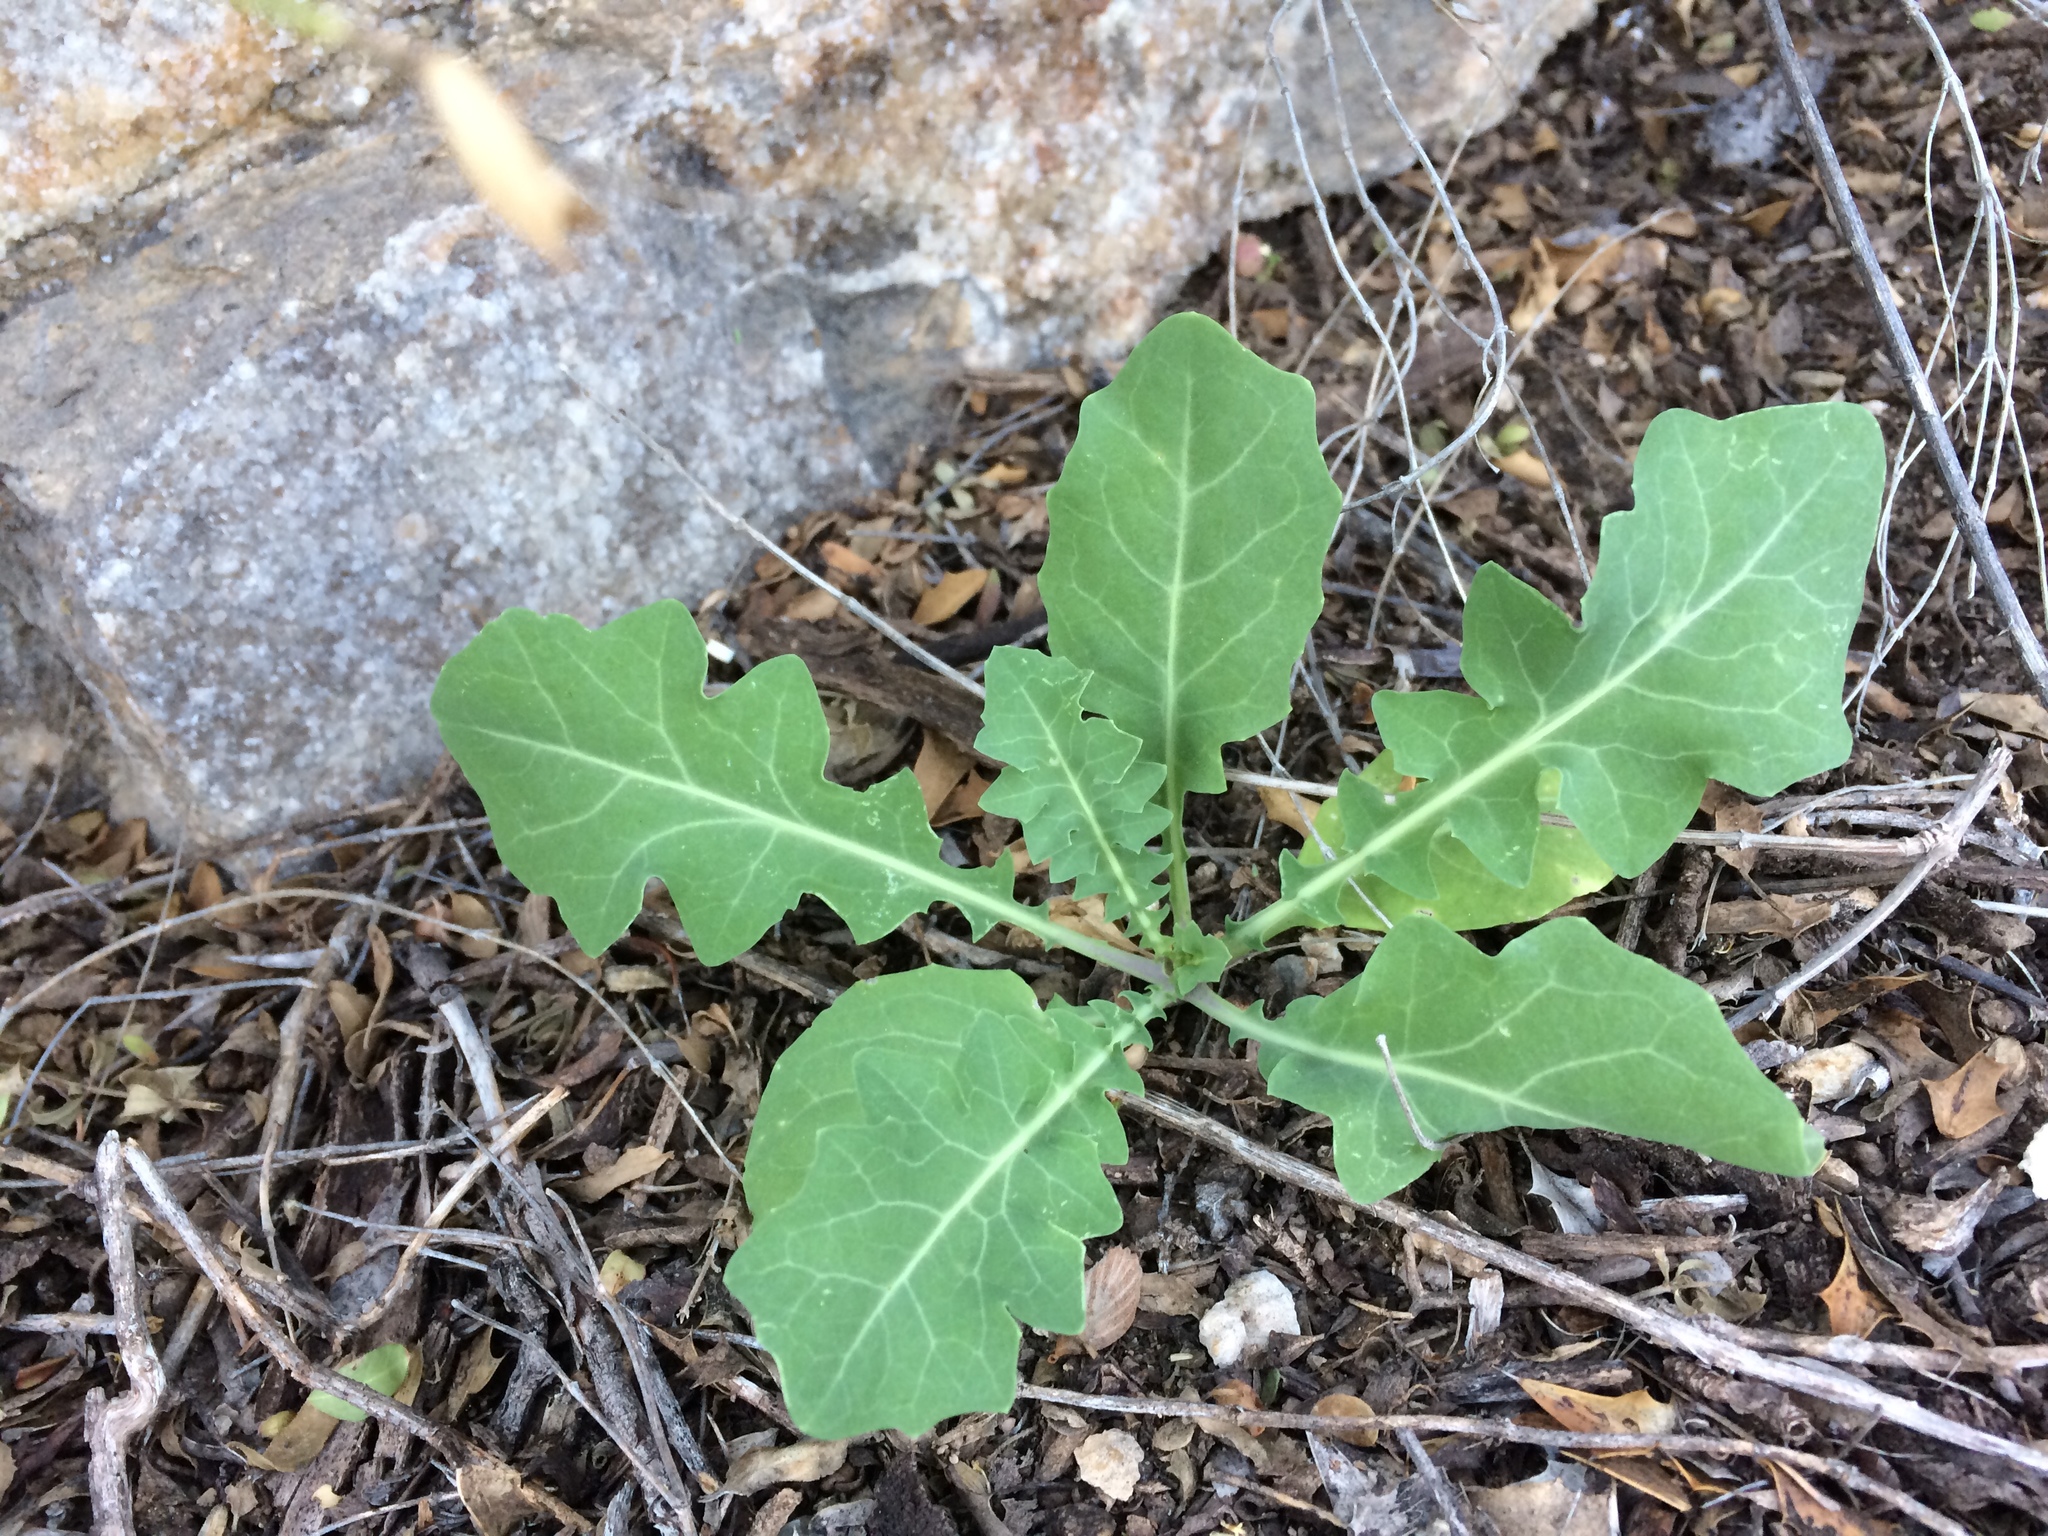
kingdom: Plantae
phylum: Tracheophyta
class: Magnoliopsida
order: Brassicales
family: Brassicaceae
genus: Streptanthus
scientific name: Streptanthus carinatus
